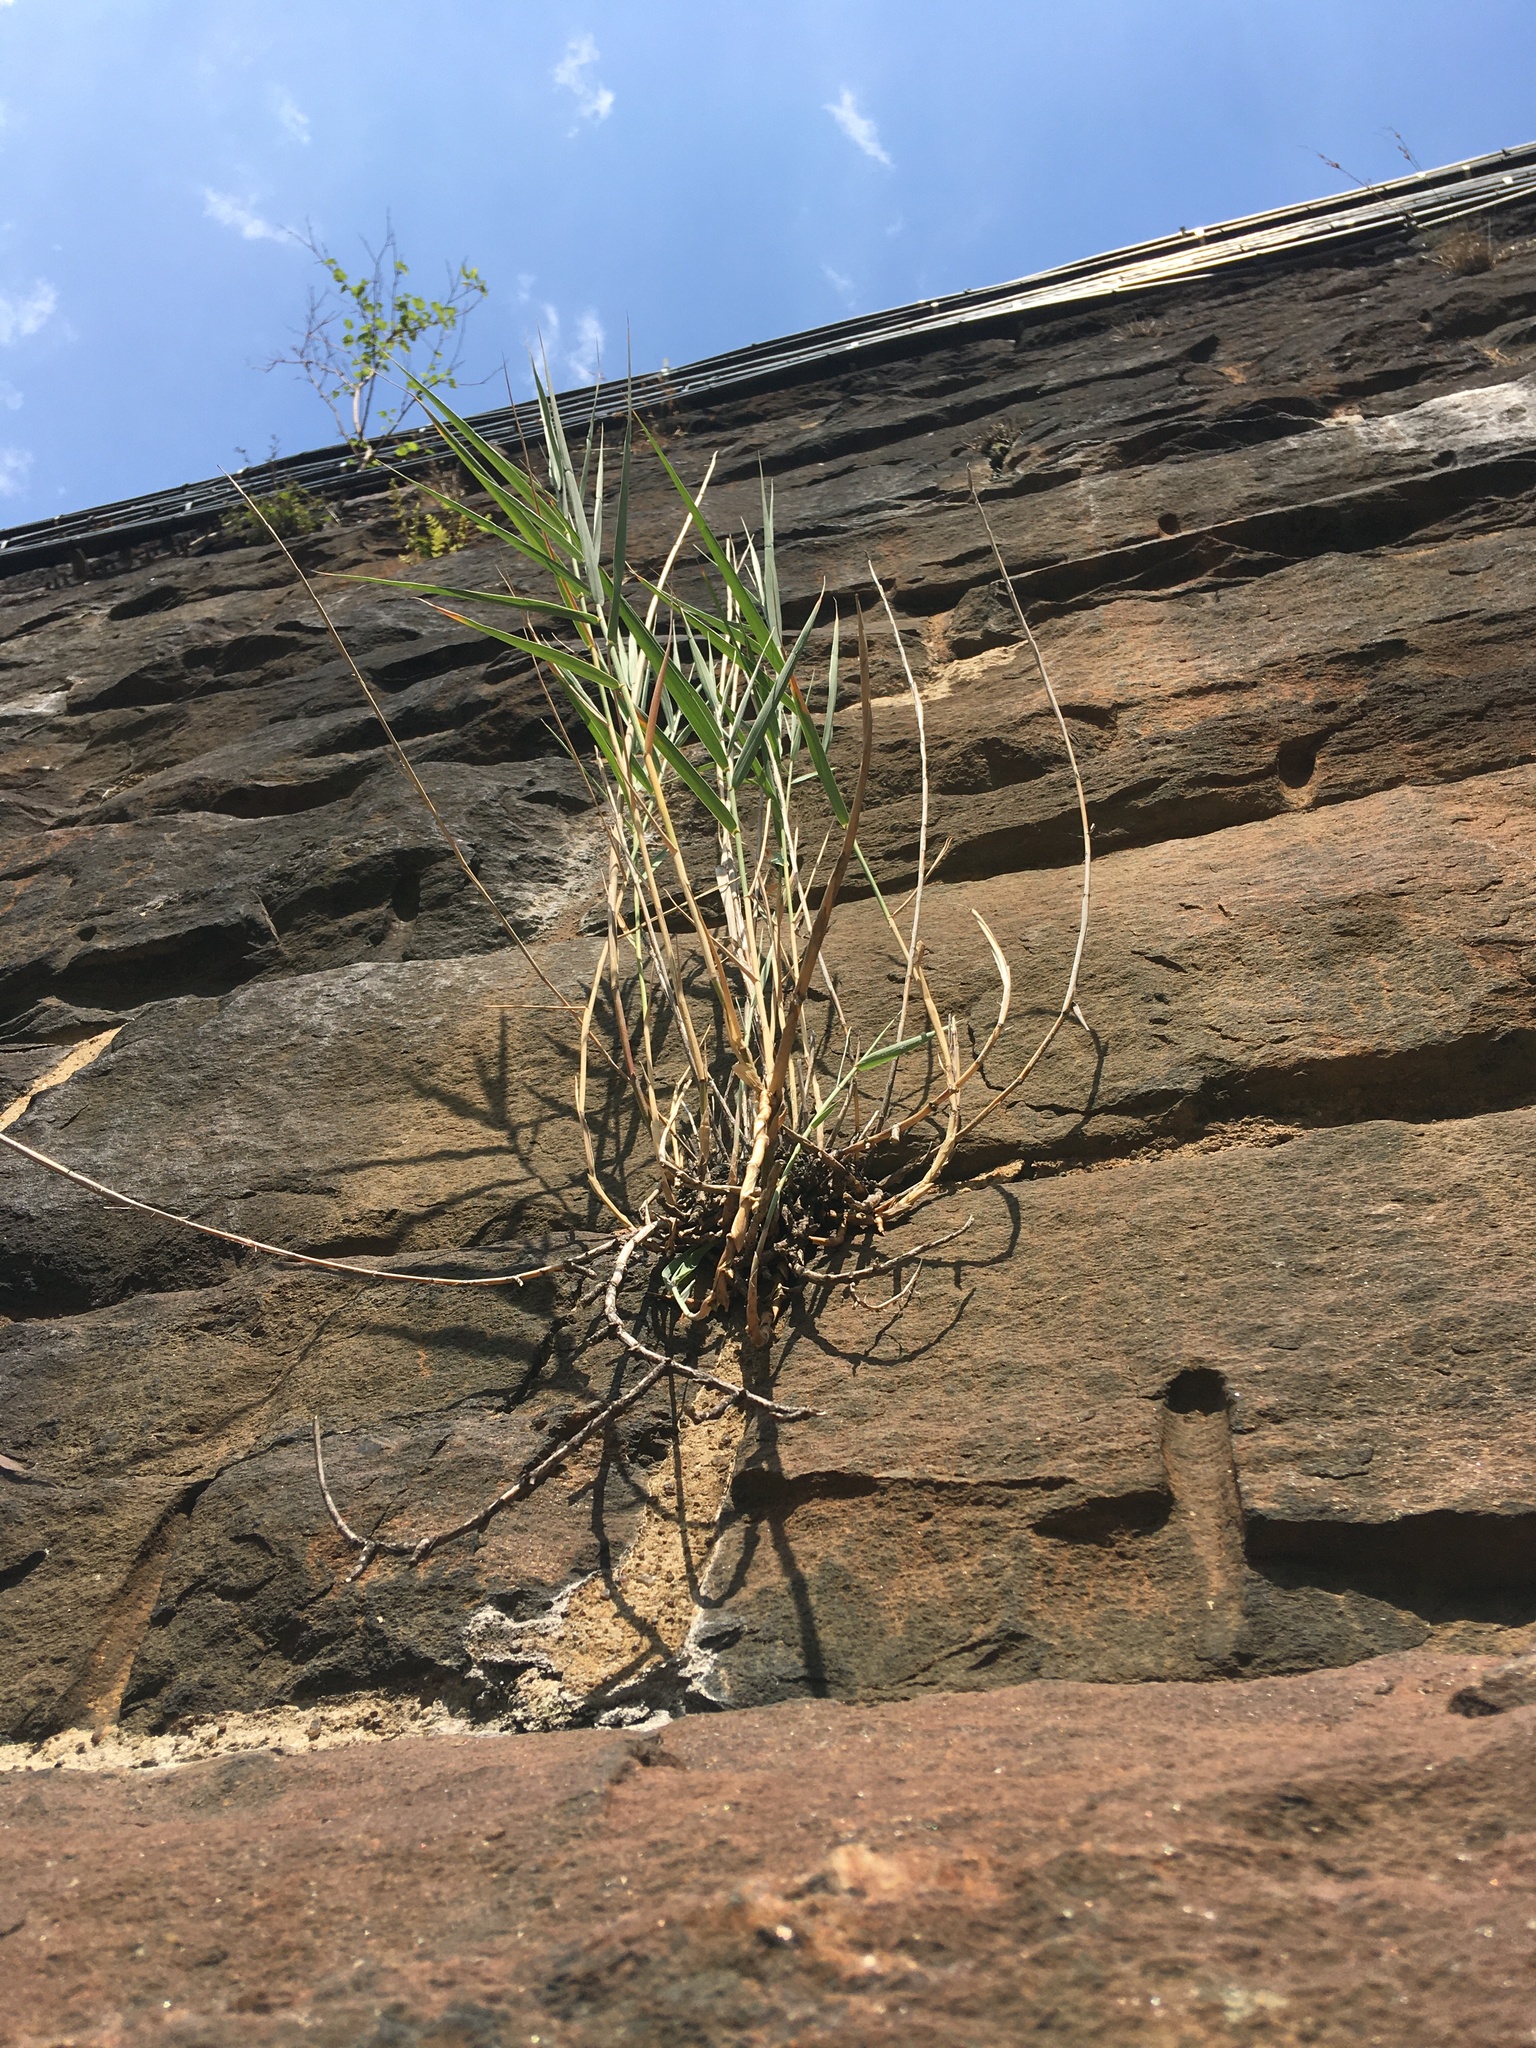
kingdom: Plantae
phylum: Tracheophyta
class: Liliopsida
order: Poales
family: Poaceae
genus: Phragmites
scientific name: Phragmites australis
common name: Common reed
